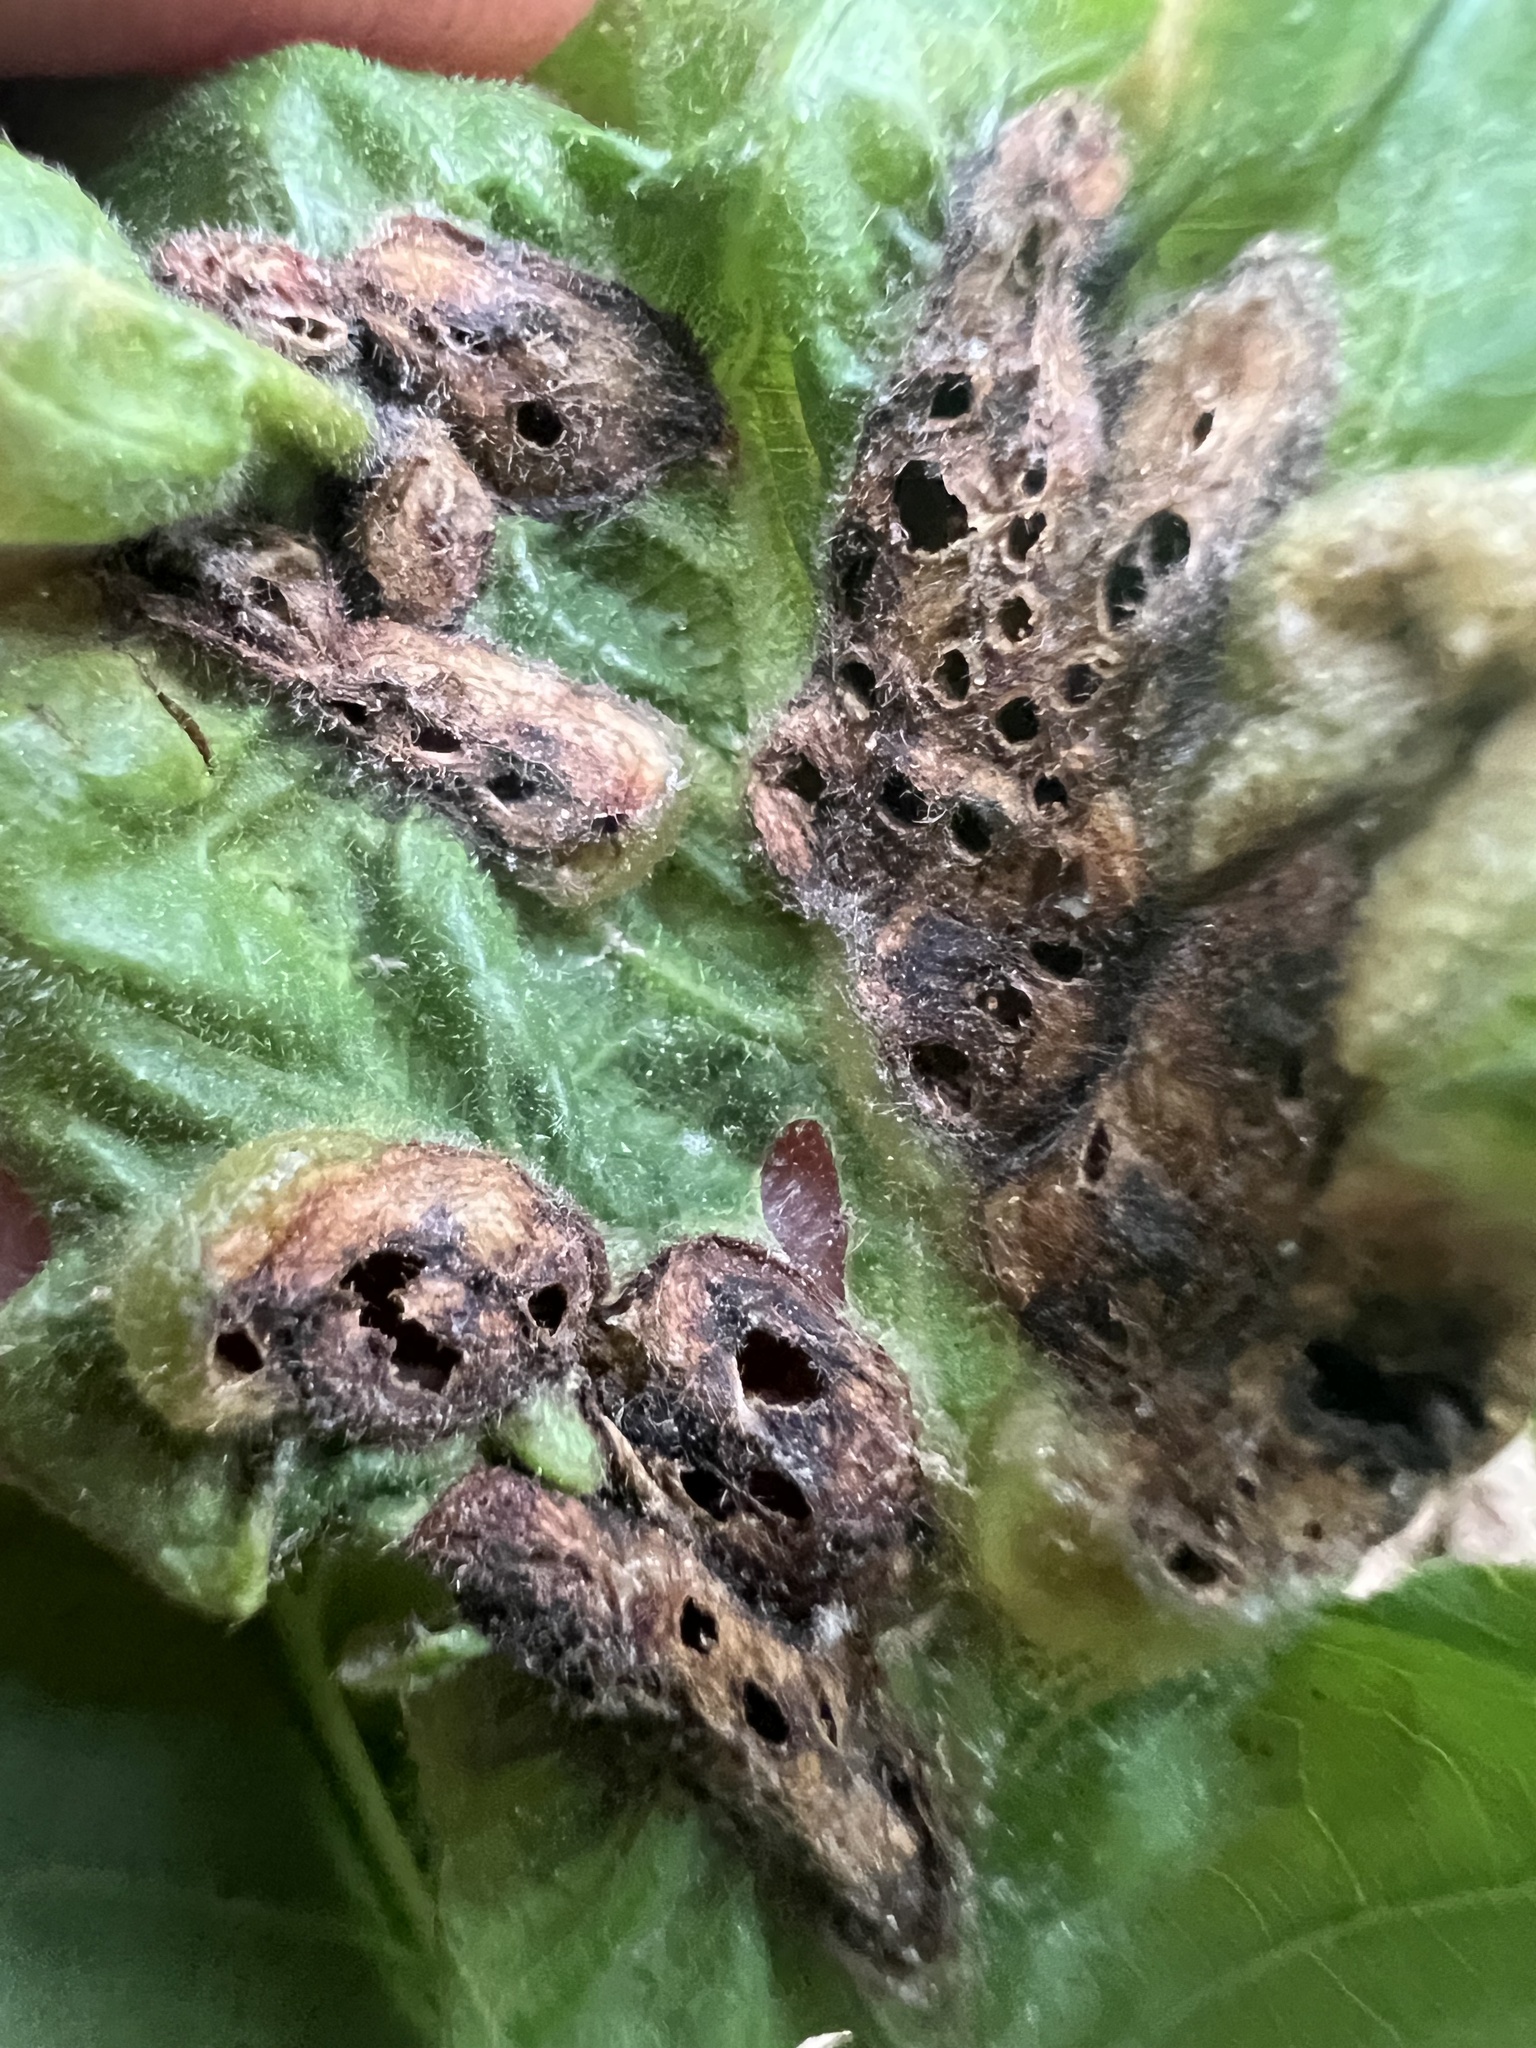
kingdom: Animalia
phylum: Arthropoda
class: Insecta
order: Hymenoptera
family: Cynipidae
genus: Neuroterus
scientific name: Neuroterus quercusirregularis
